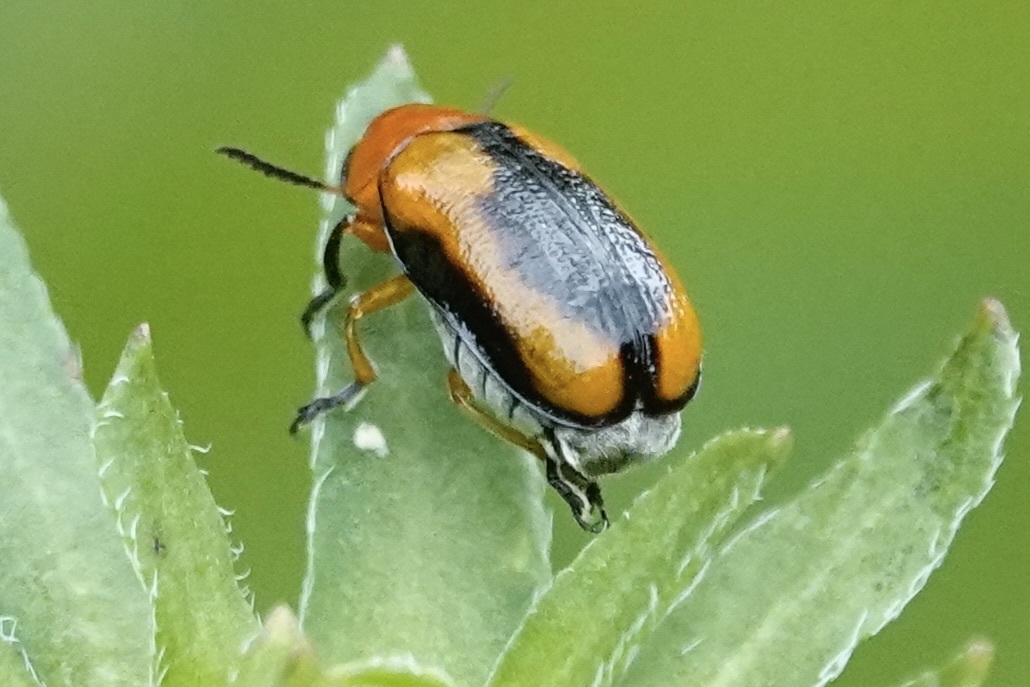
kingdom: Animalia
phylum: Arthropoda
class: Insecta
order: Coleoptera
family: Chrysomelidae
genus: Anomoea
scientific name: Anomoea laticlavia
